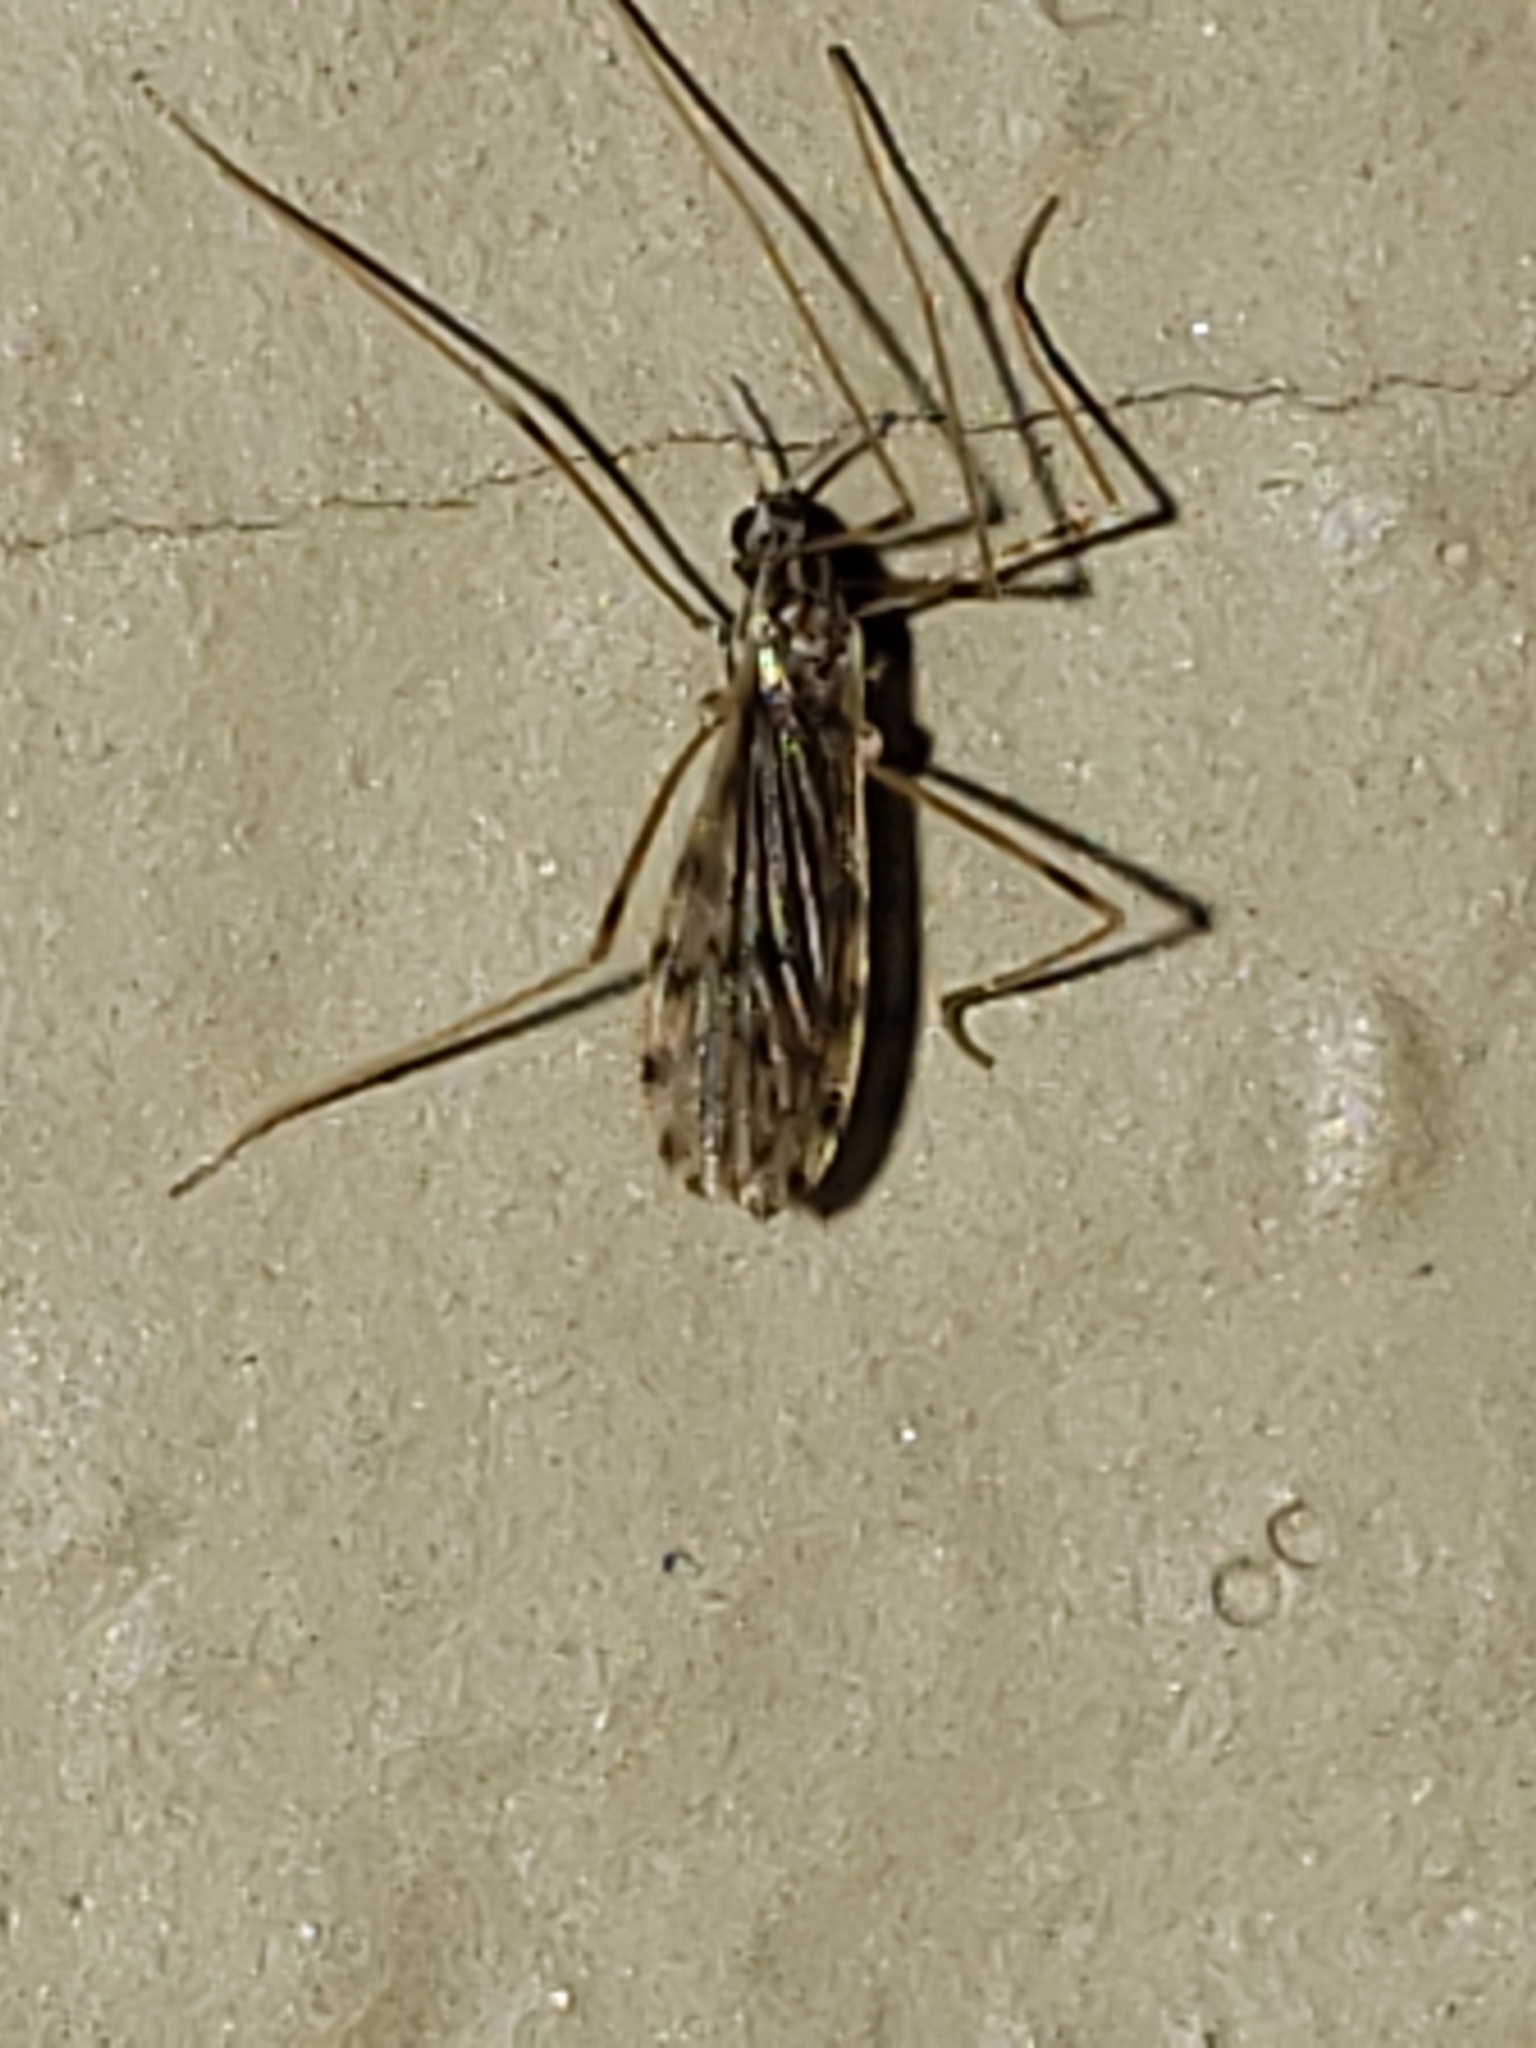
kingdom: Animalia
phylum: Arthropoda
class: Insecta
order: Diptera
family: Limoniidae
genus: Erioptera
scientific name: Erioptera parva
